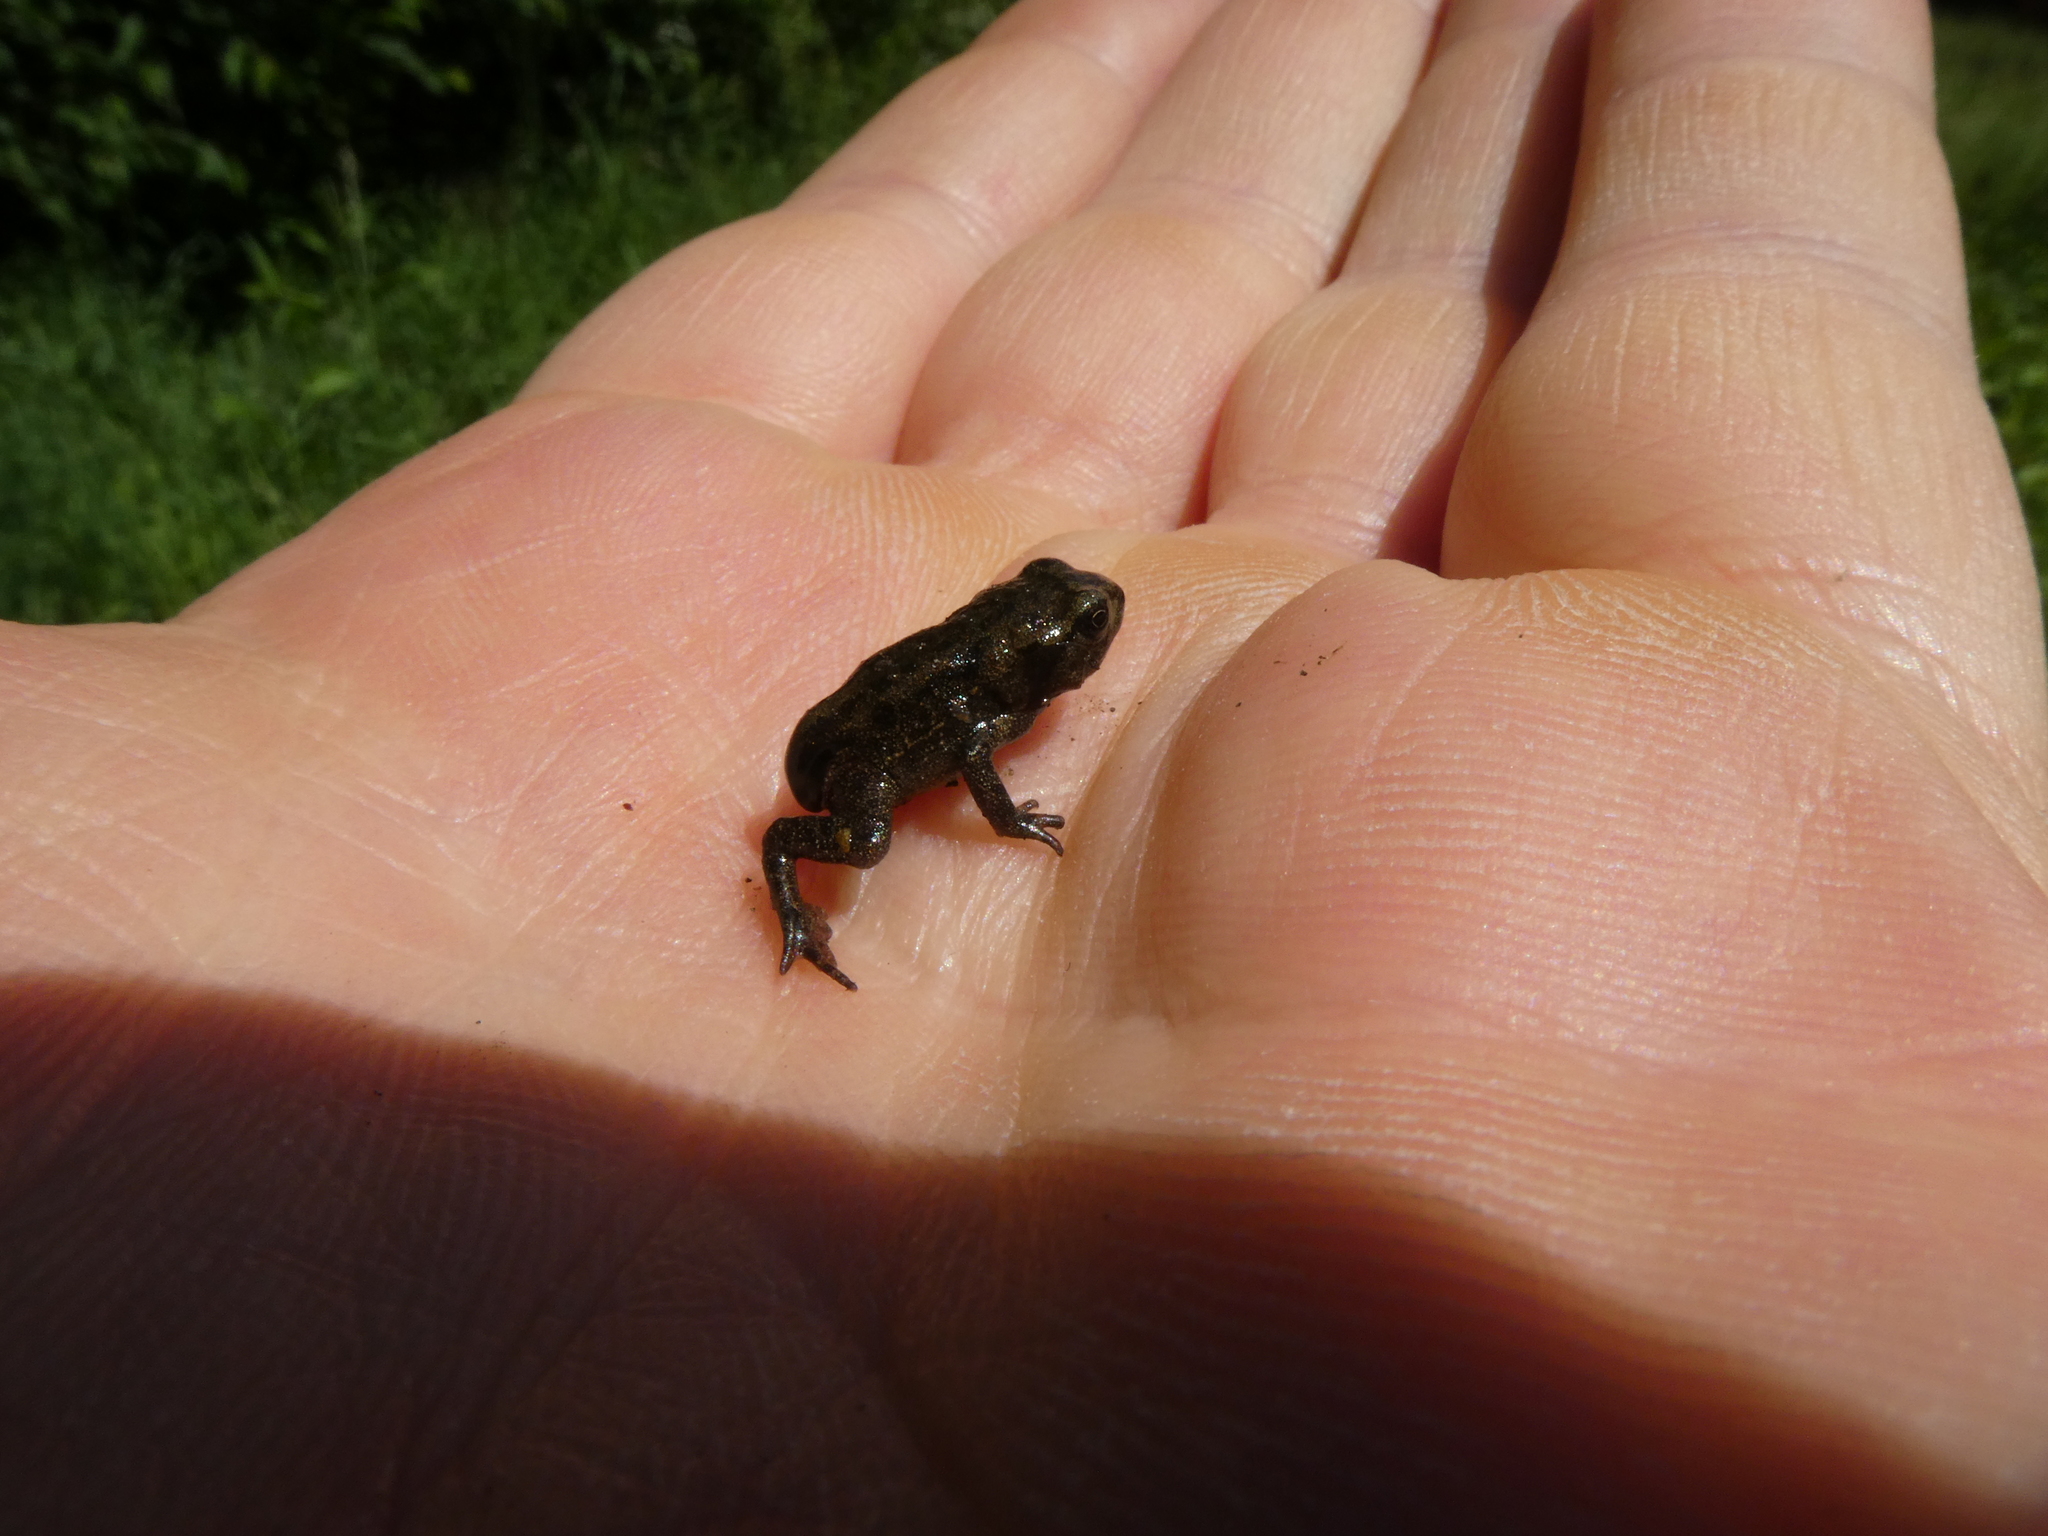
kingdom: Animalia
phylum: Chordata
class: Amphibia
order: Anura
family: Bufonidae
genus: Bufo
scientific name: Bufo bufo
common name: Common toad
